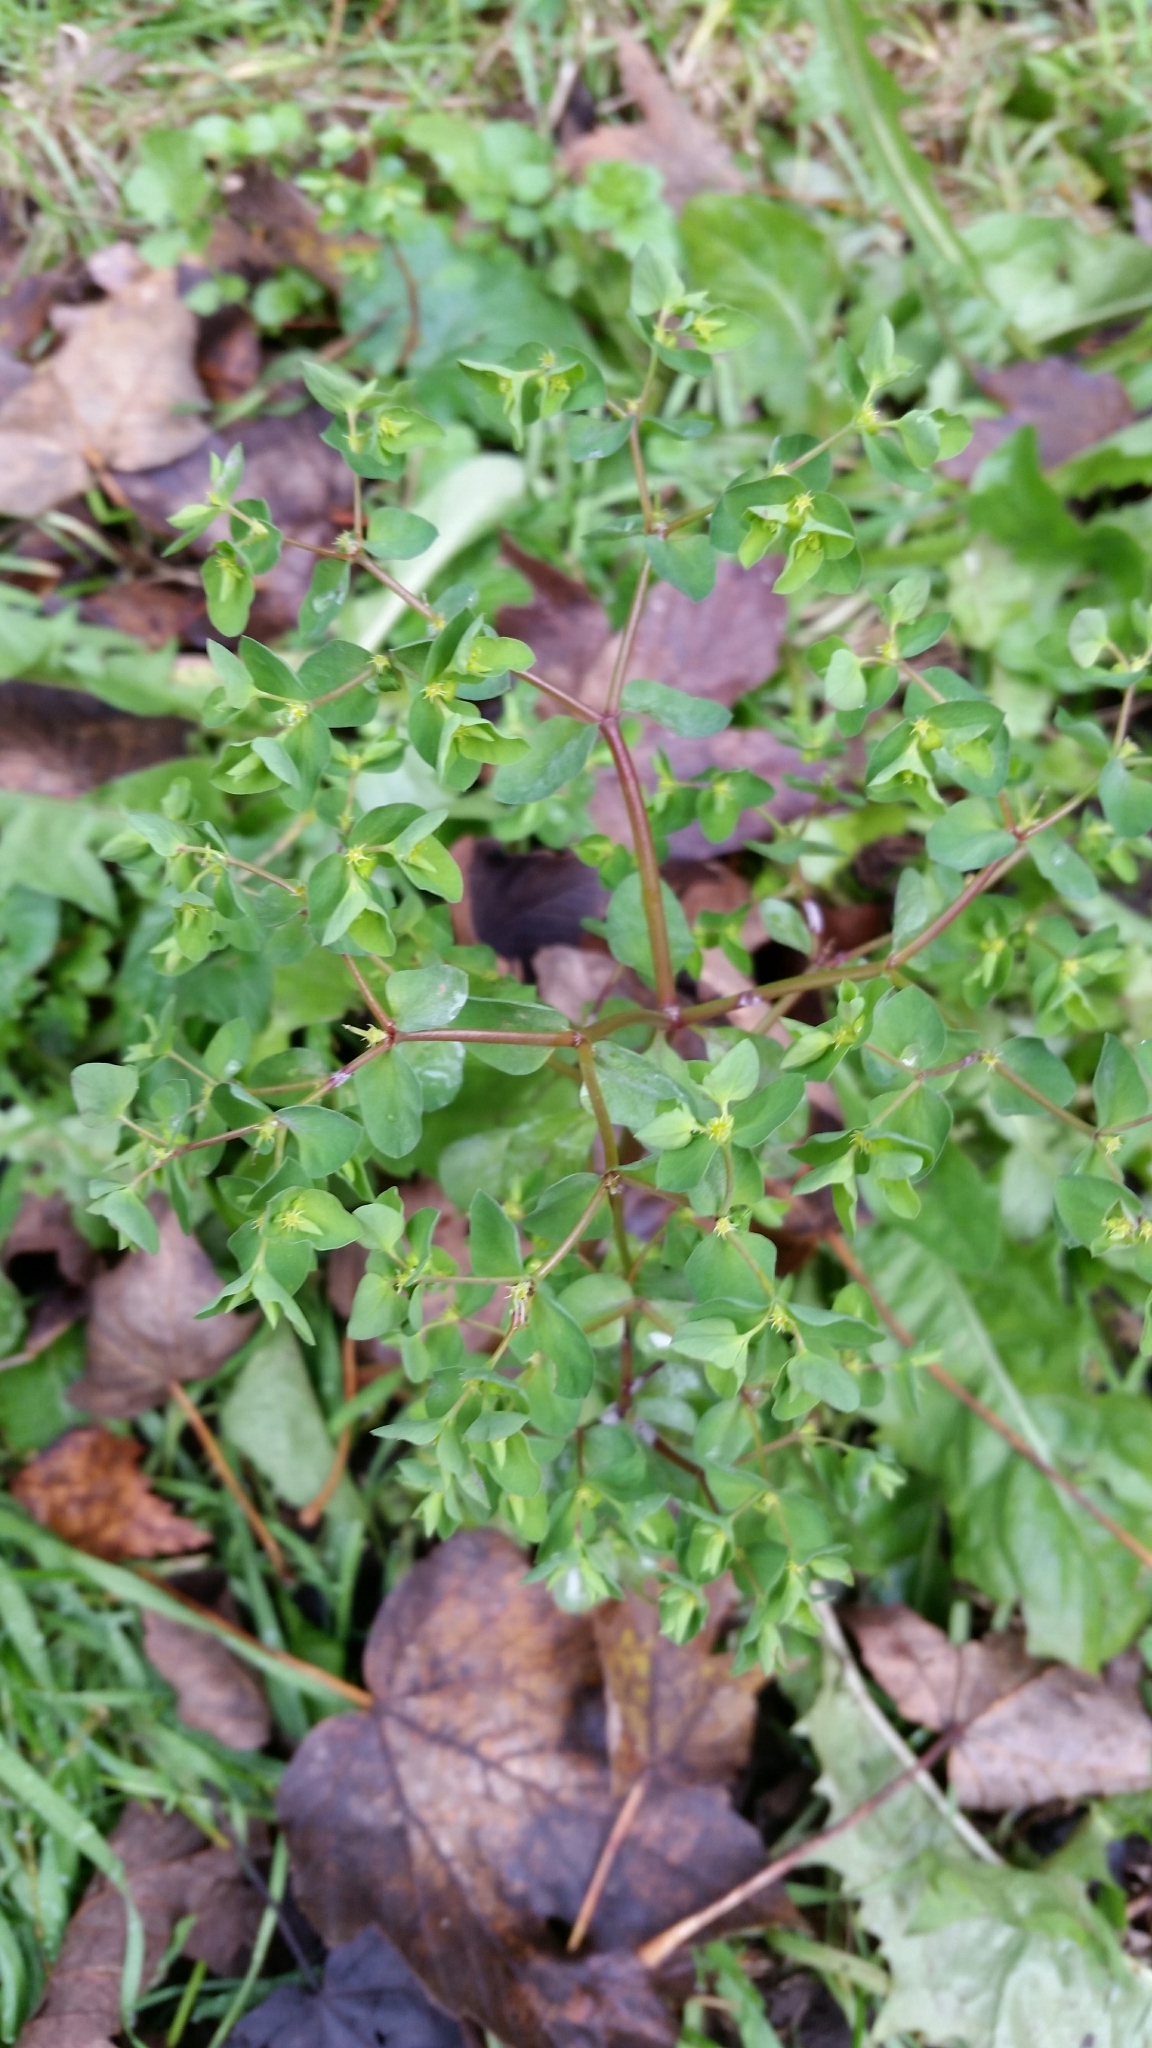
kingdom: Plantae
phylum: Tracheophyta
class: Magnoliopsida
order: Malpighiales
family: Euphorbiaceae
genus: Euphorbia
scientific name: Euphorbia peplus
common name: Petty spurge
